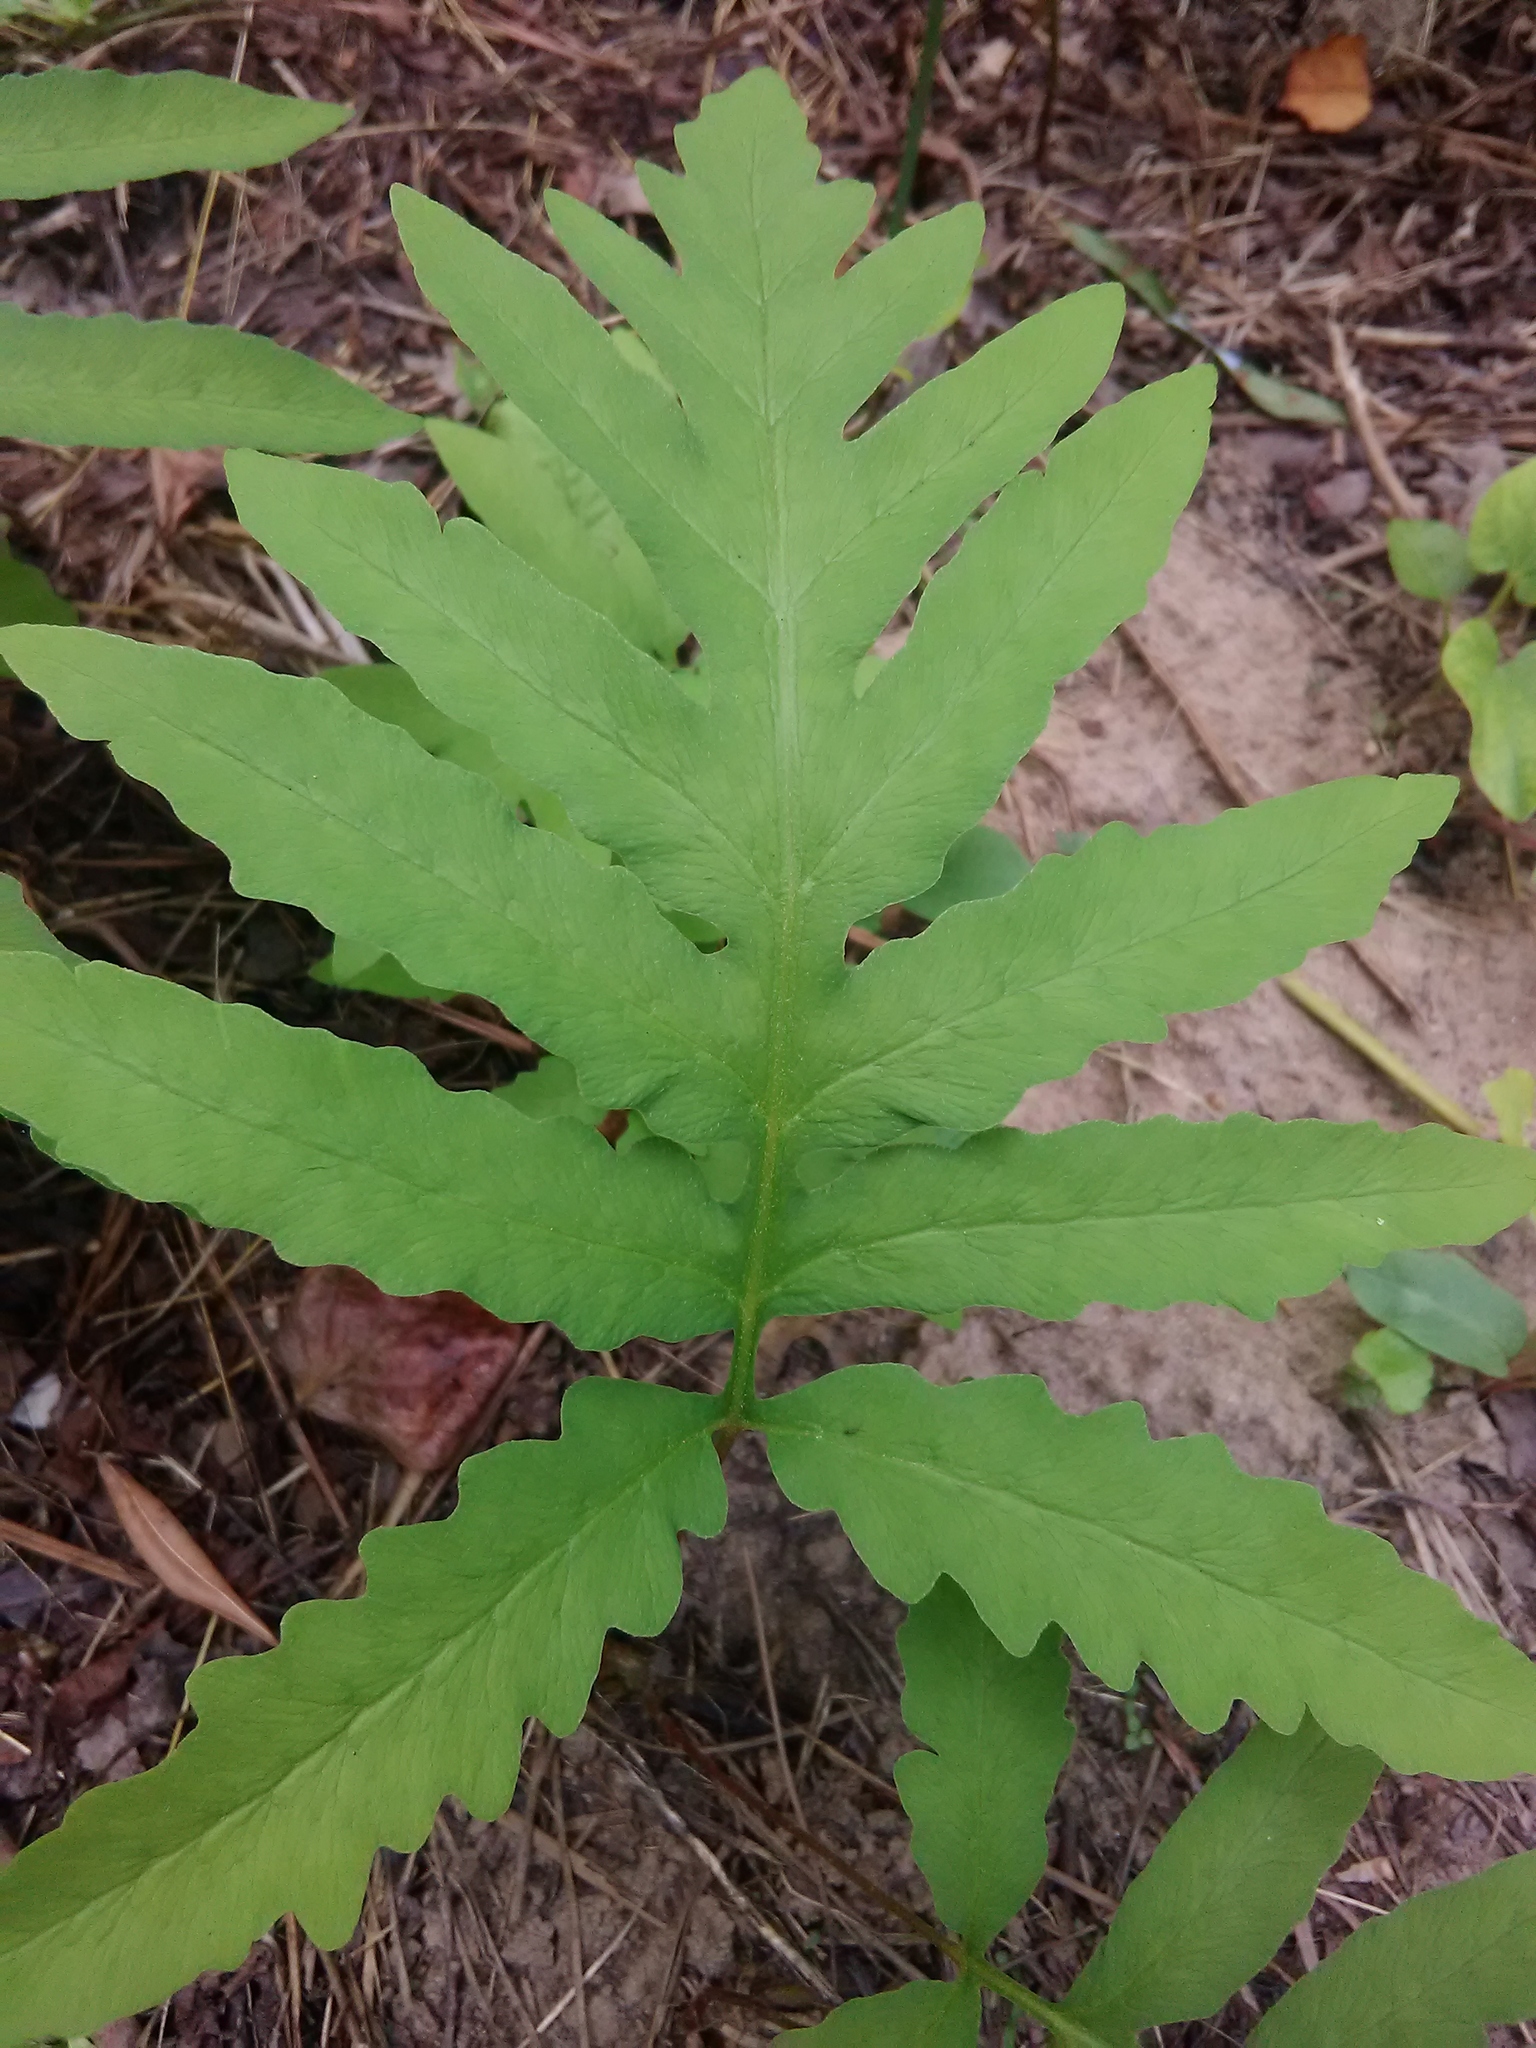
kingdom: Plantae
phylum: Tracheophyta
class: Polypodiopsida
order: Polypodiales
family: Onocleaceae
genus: Onoclea
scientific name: Onoclea sensibilis
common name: Sensitive fern
